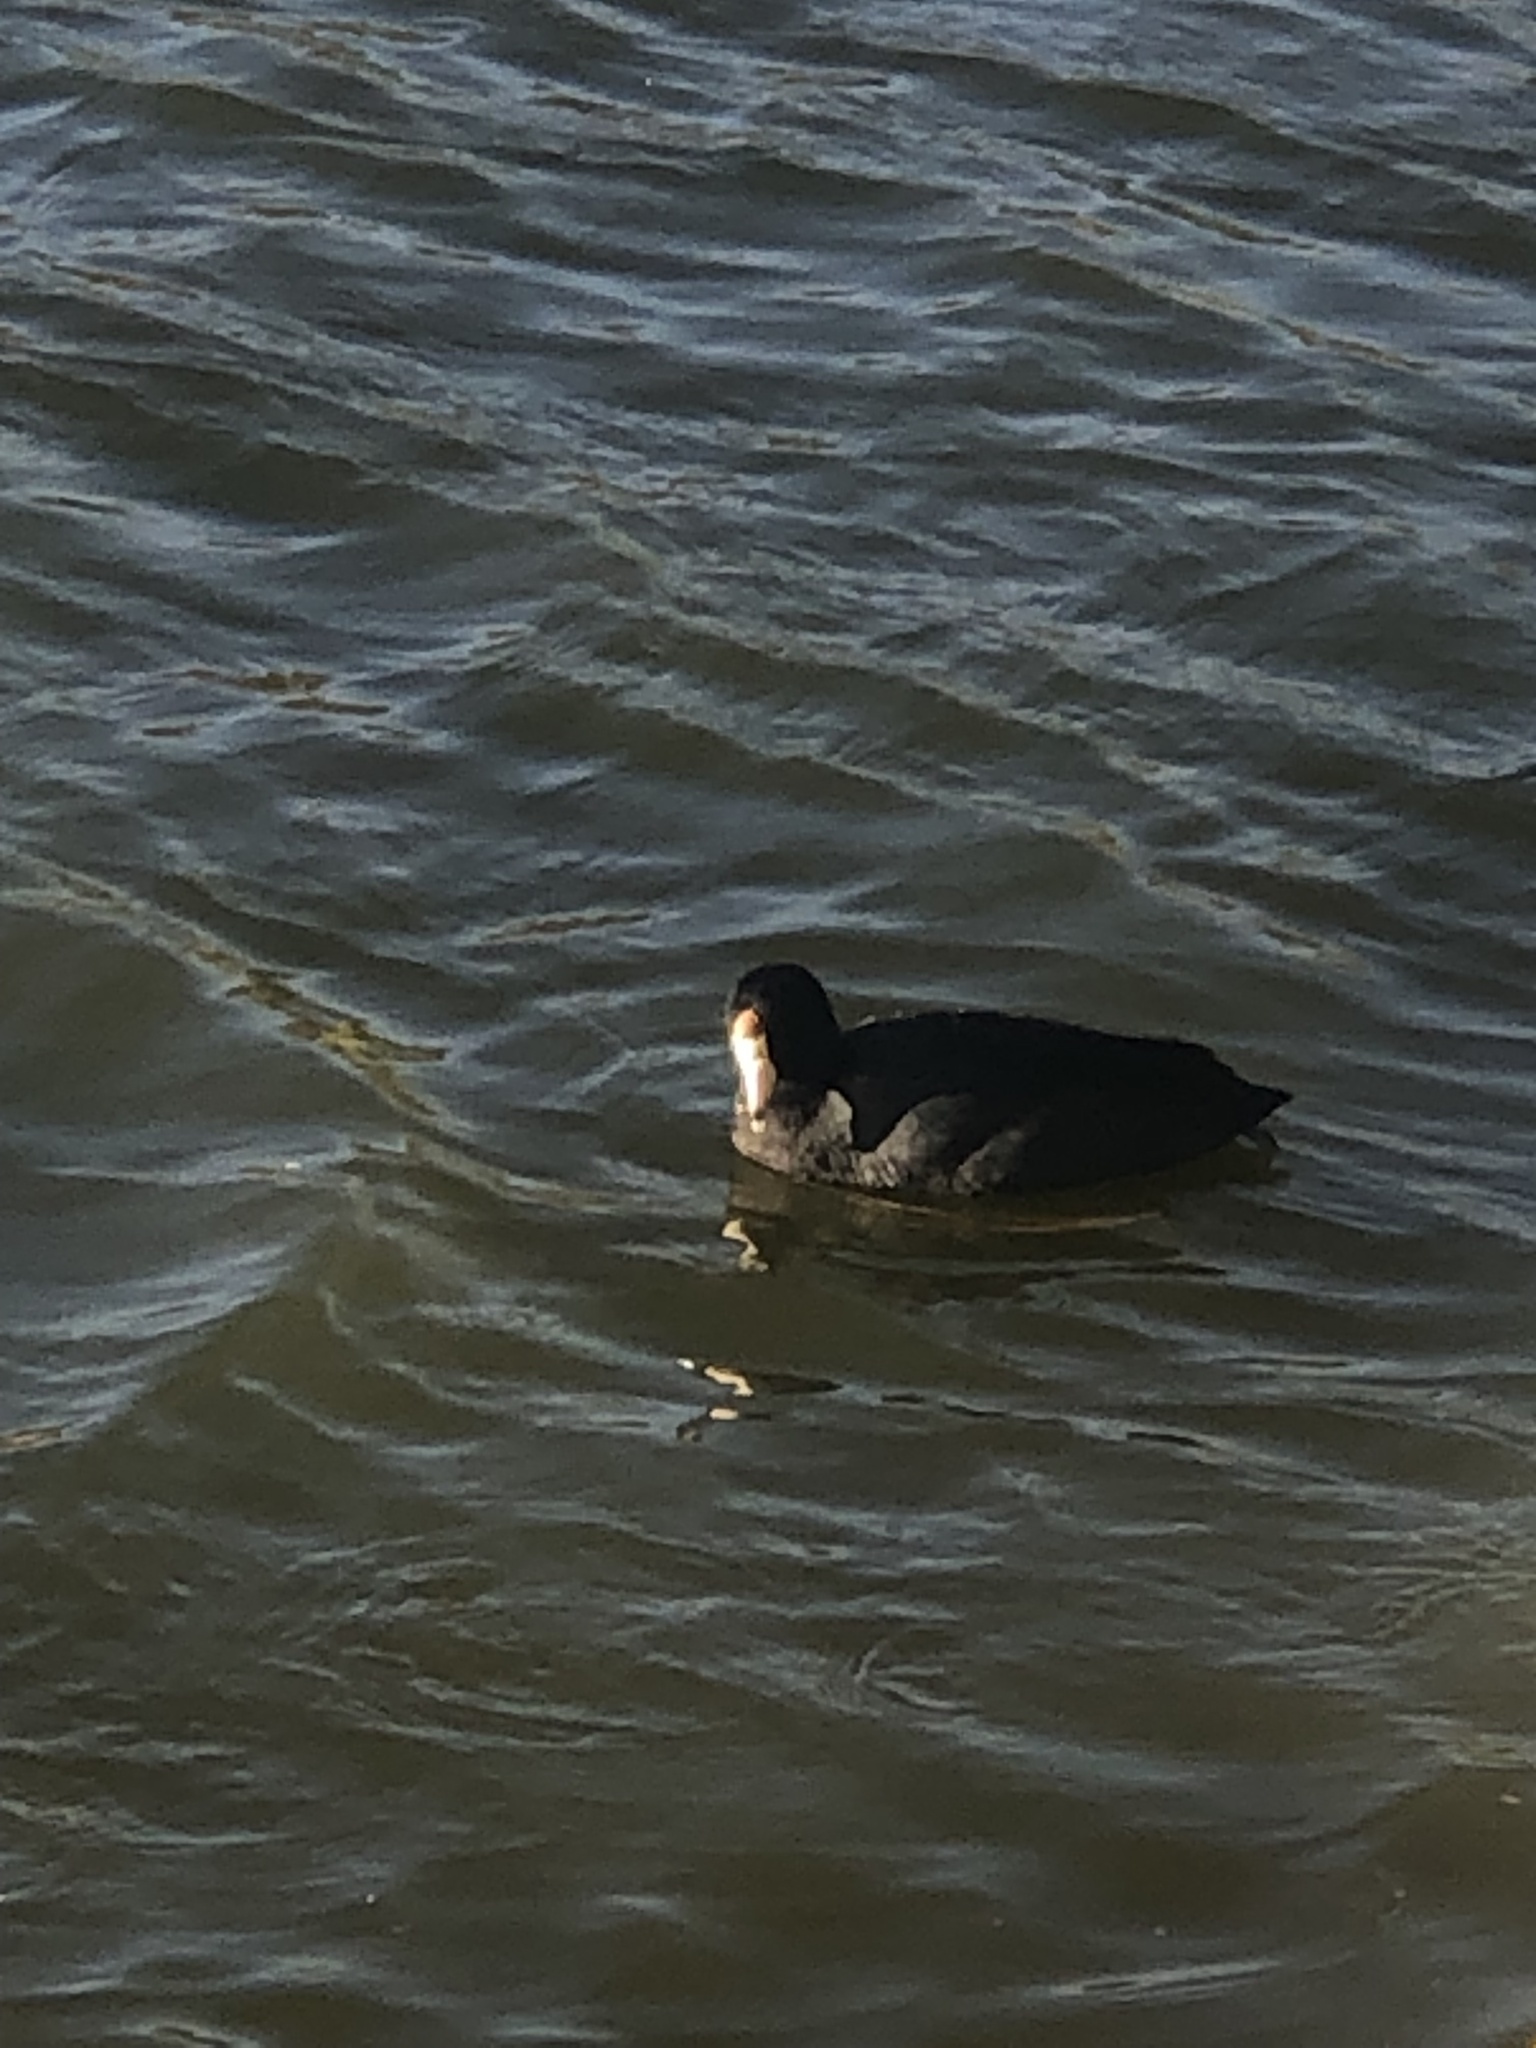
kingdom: Animalia
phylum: Chordata
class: Aves
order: Gruiformes
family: Rallidae
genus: Fulica
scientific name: Fulica americana
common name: American coot
